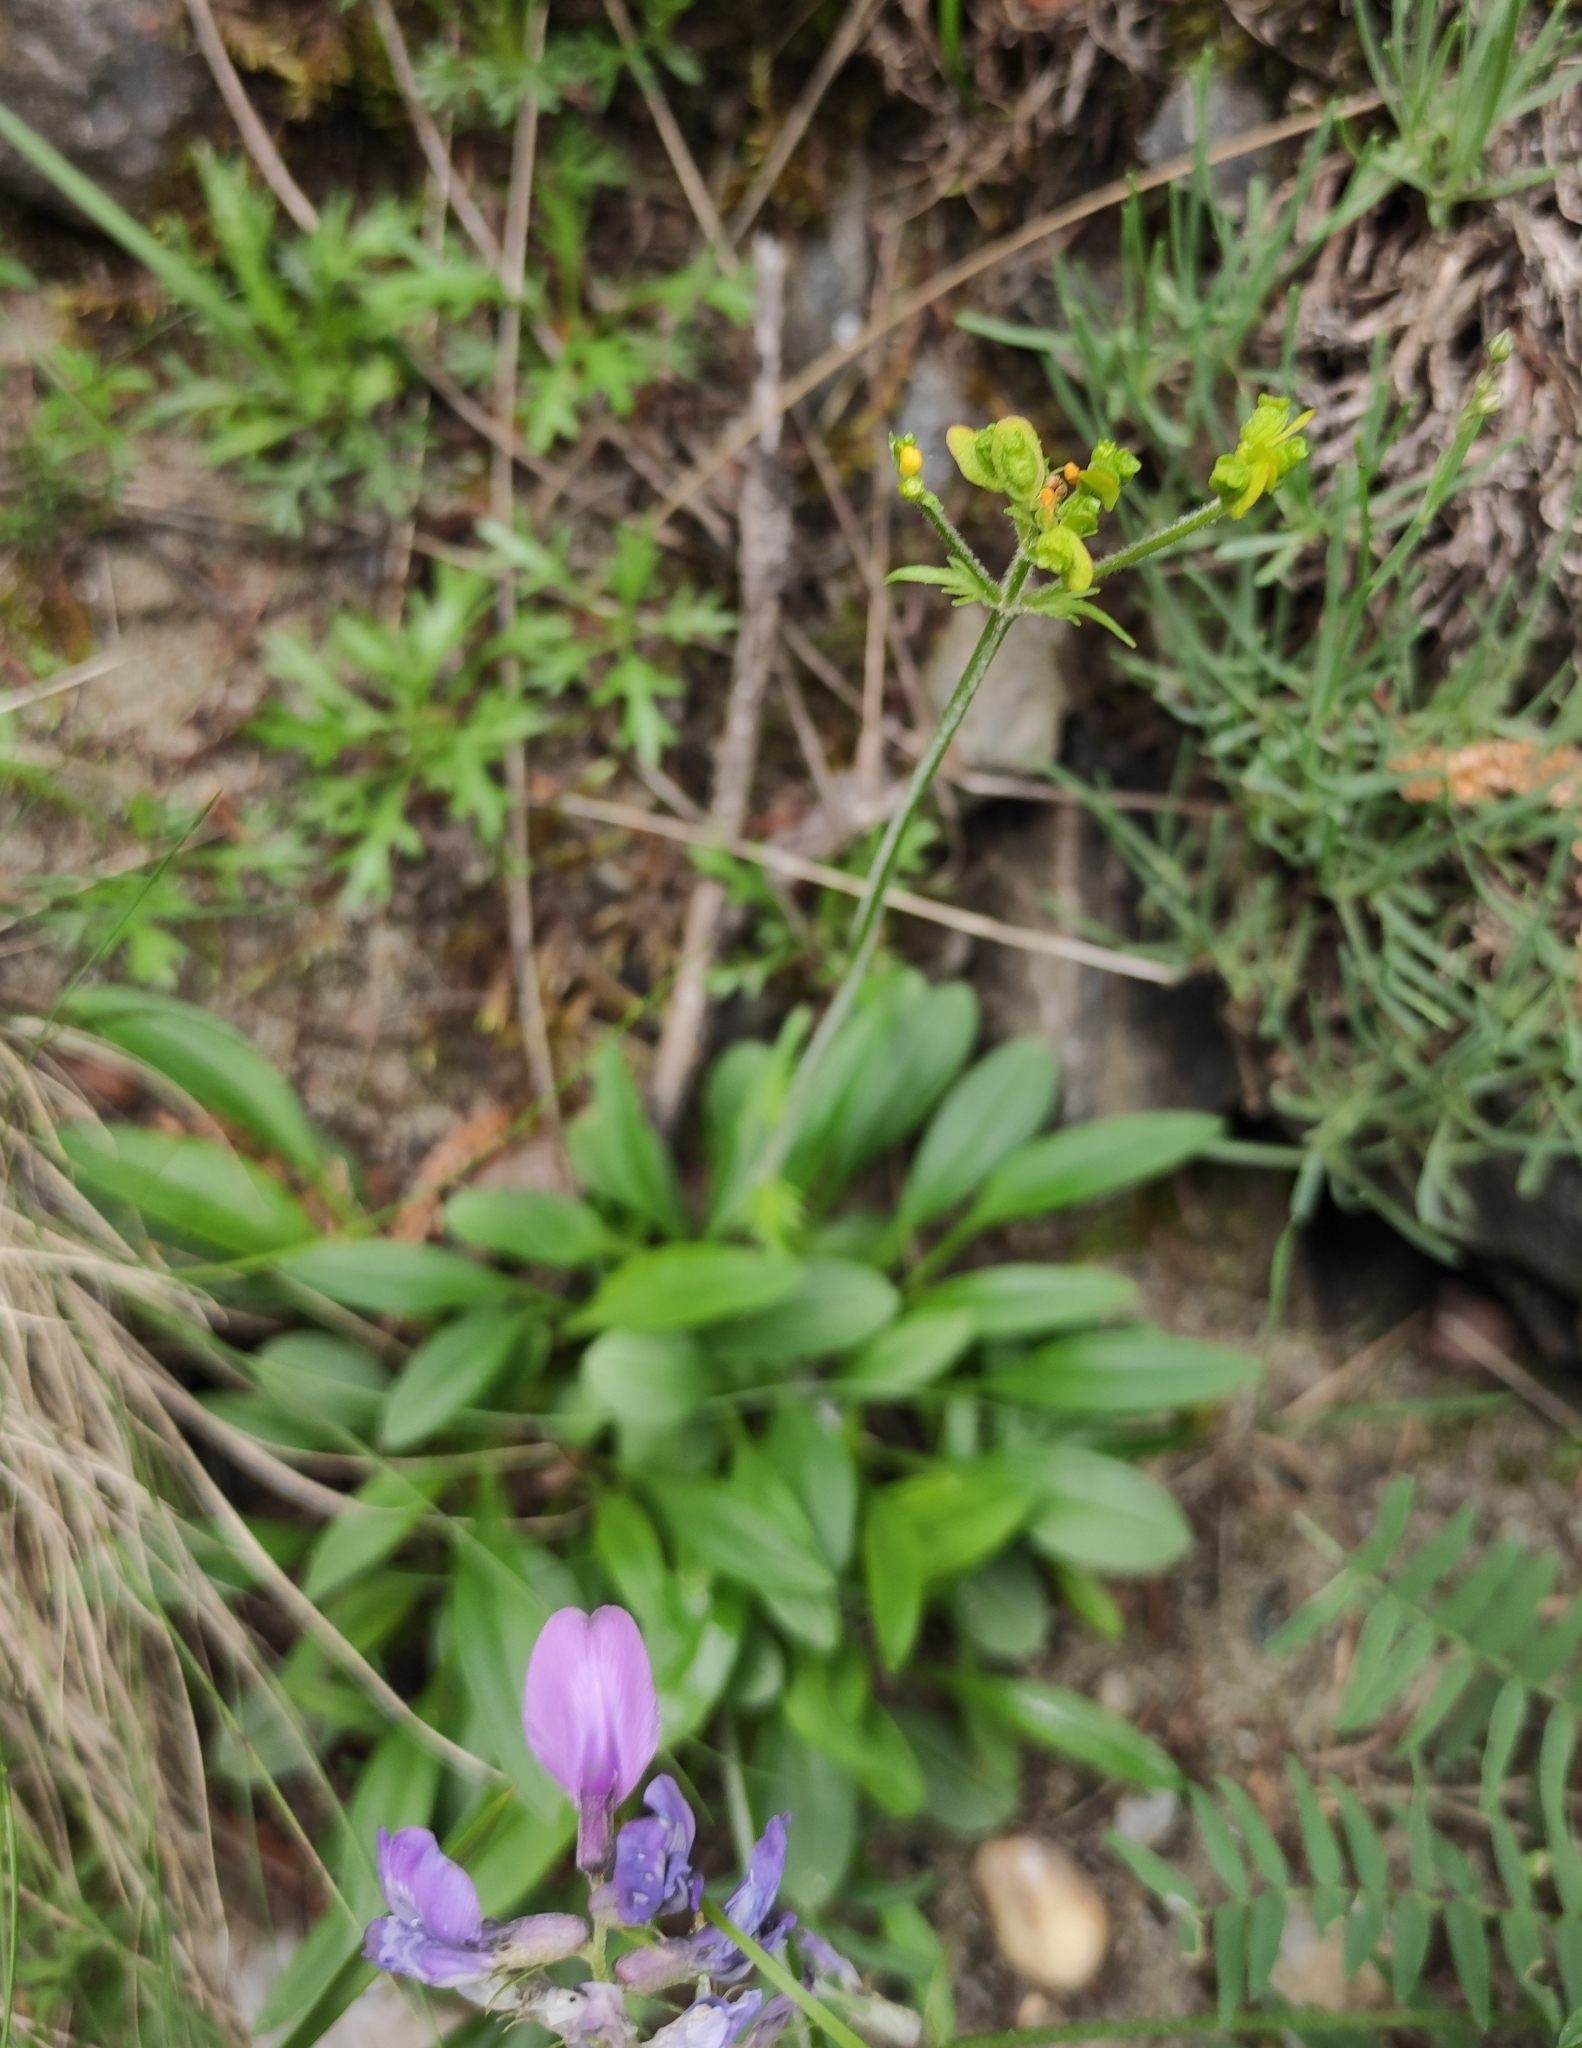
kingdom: Plantae
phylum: Tracheophyta
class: Magnoliopsida
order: Dipsacales
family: Caprifoliaceae
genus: Patrinia
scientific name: Patrinia sibirica
